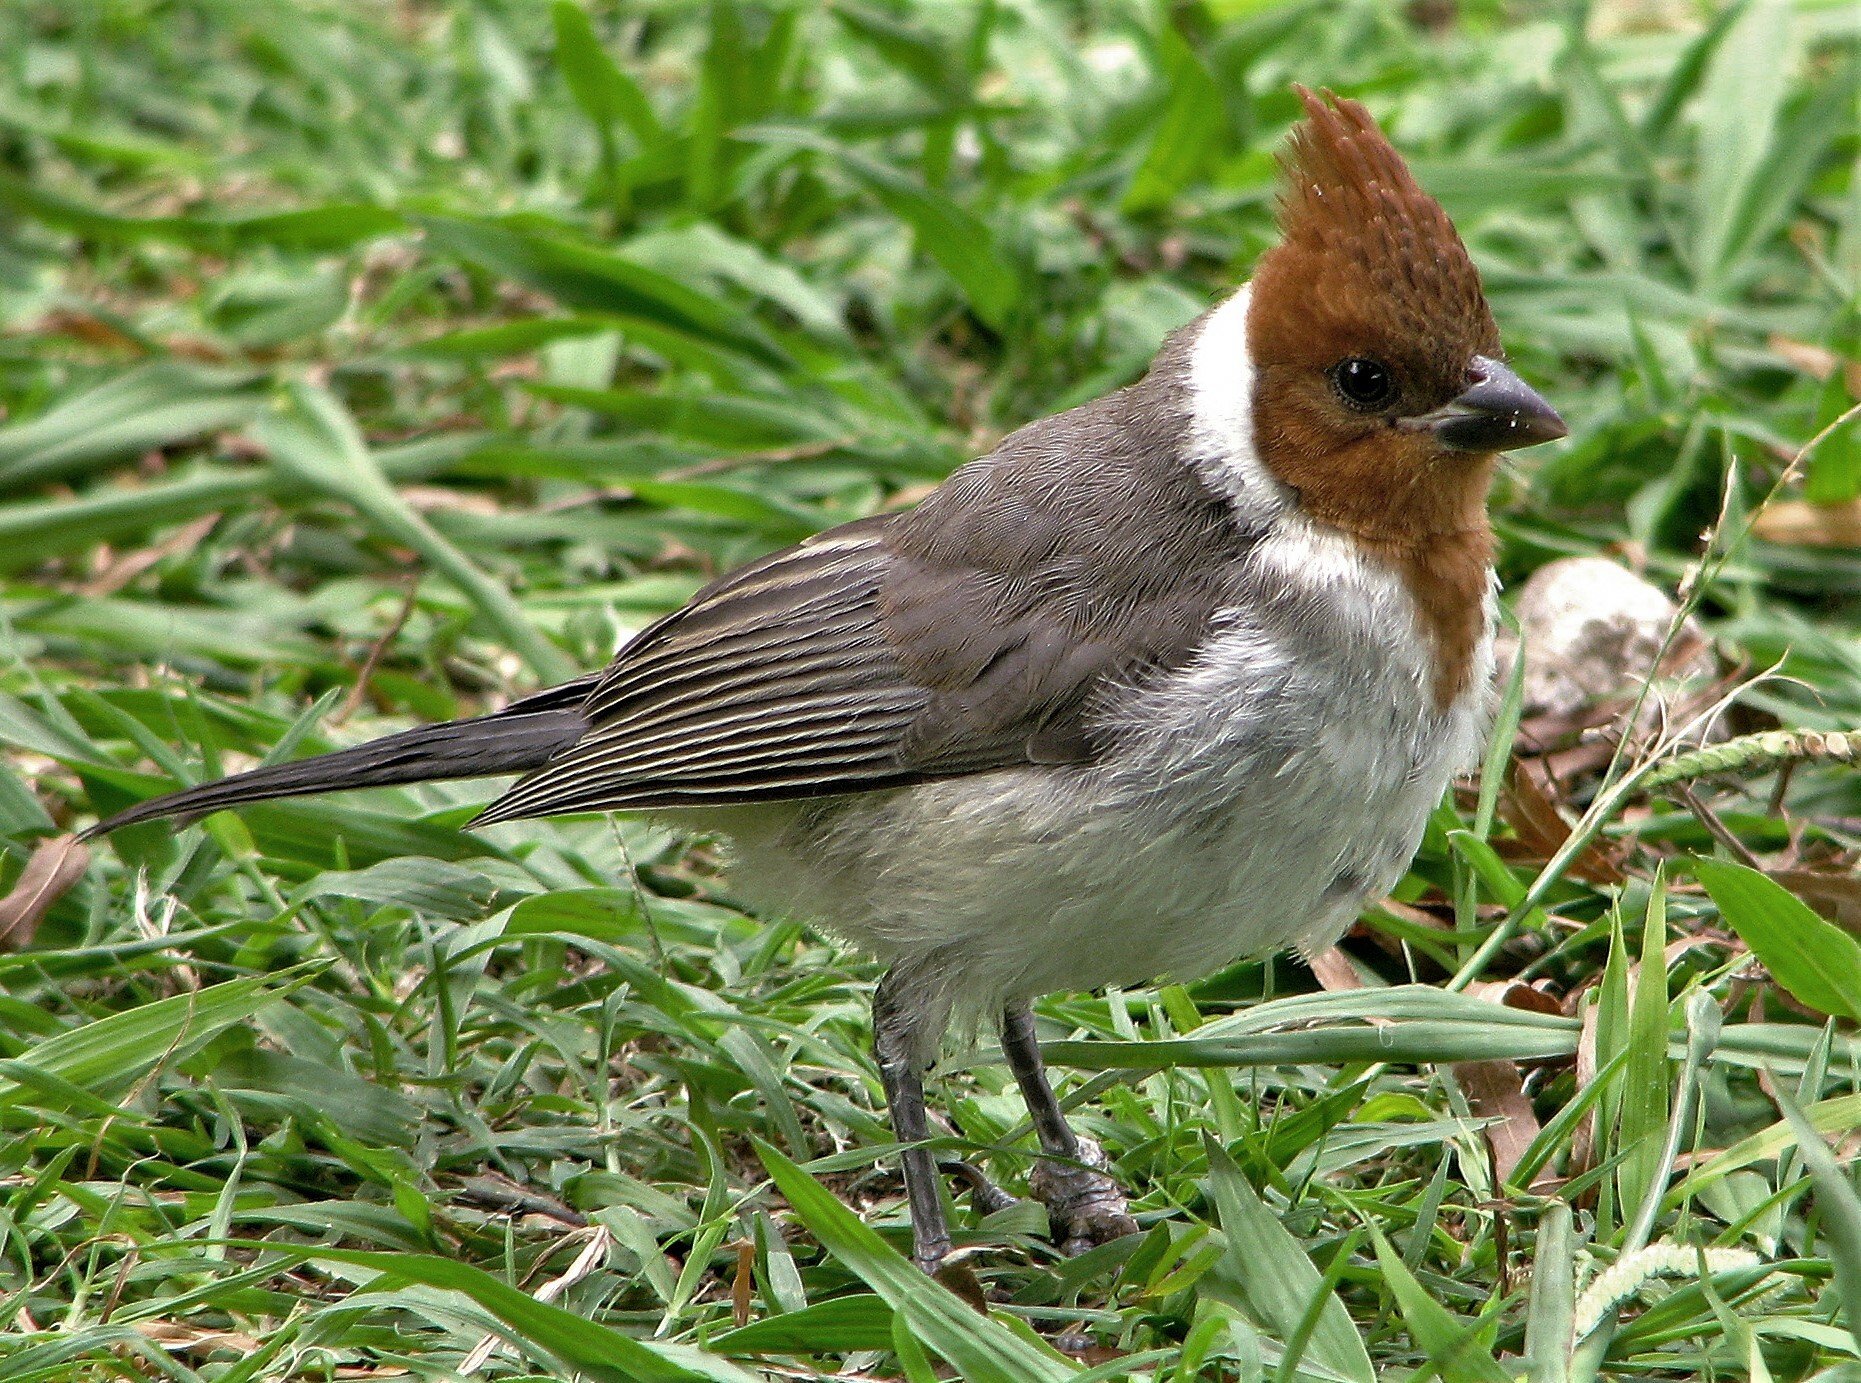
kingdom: Animalia
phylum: Chordata
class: Aves
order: Passeriformes
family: Thraupidae
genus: Paroaria
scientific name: Paroaria coronata
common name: Red-crested cardinal
